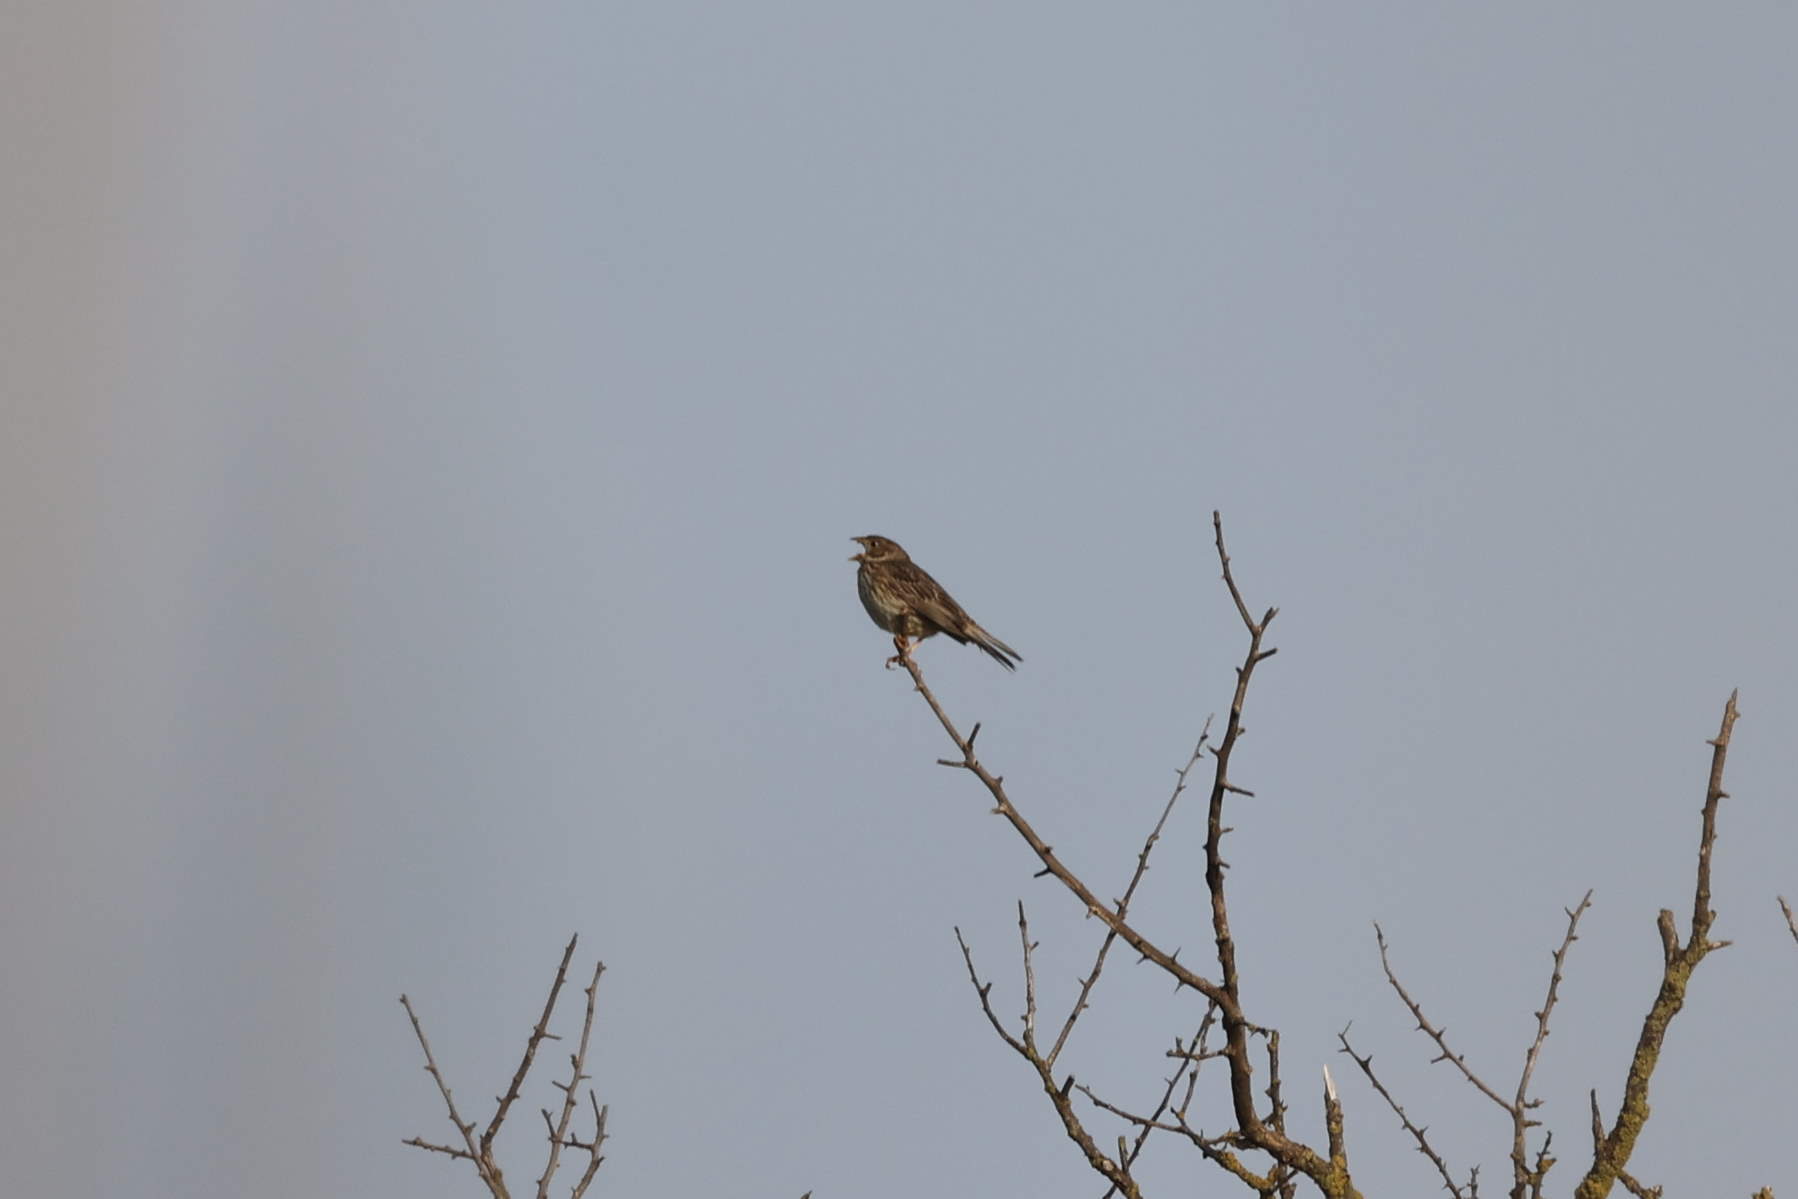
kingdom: Animalia
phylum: Chordata
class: Aves
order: Passeriformes
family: Emberizidae
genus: Emberiza
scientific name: Emberiza calandra
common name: Corn bunting
